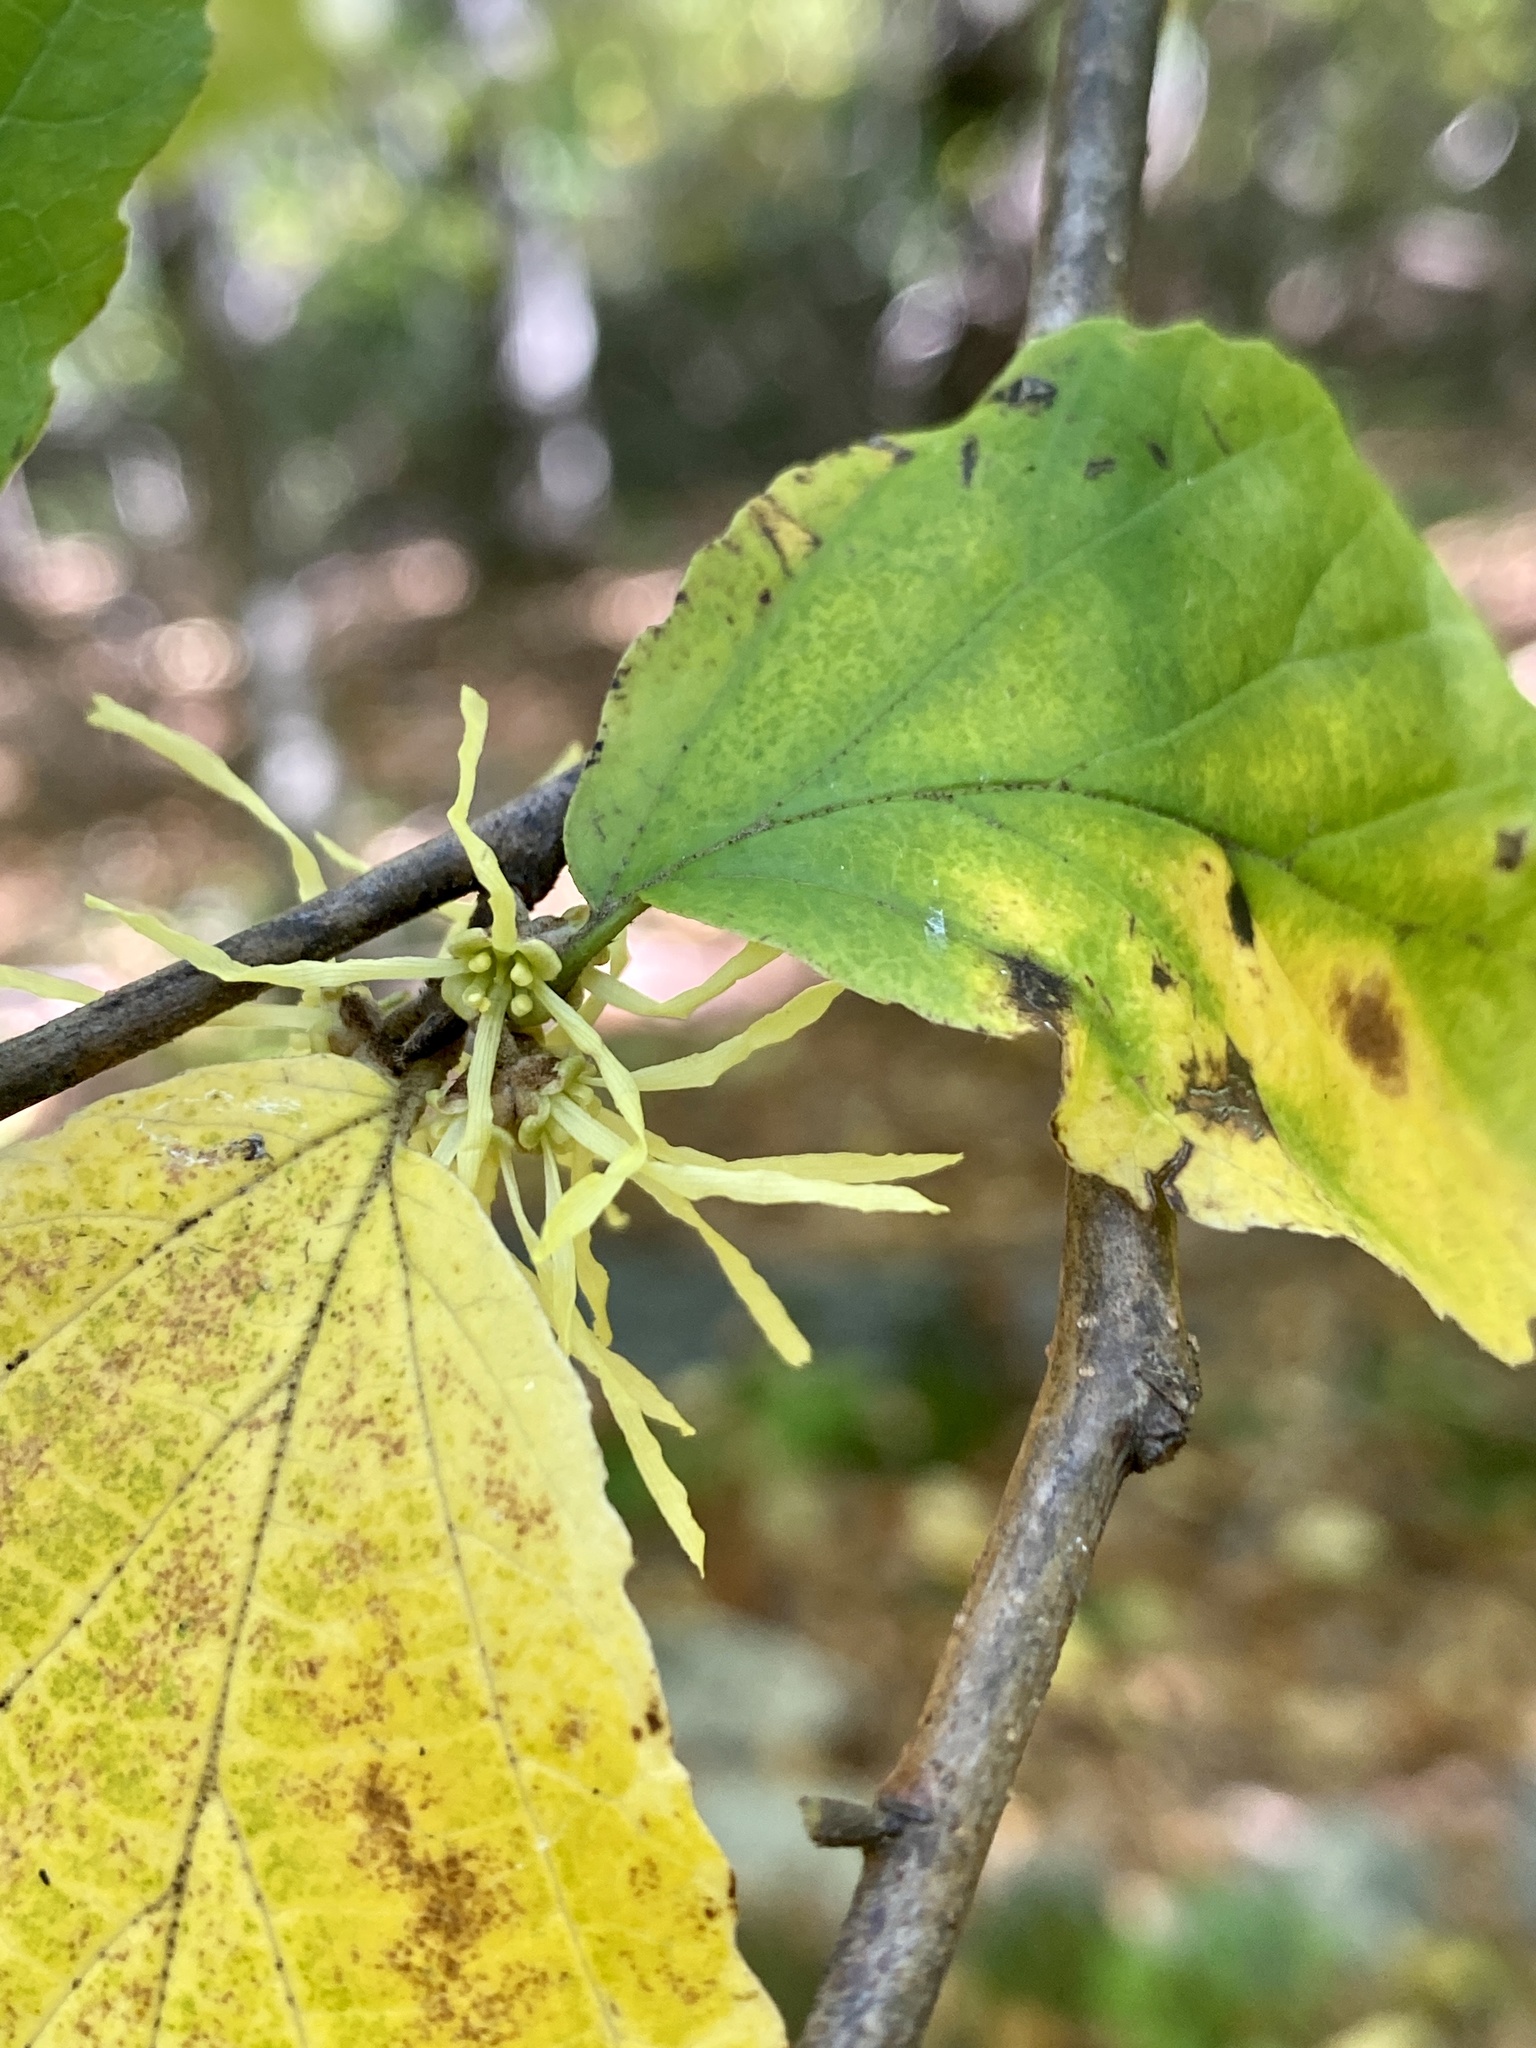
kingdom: Plantae
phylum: Tracheophyta
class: Magnoliopsida
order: Saxifragales
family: Hamamelidaceae
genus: Hamamelis
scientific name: Hamamelis virginiana
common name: Witch-hazel
